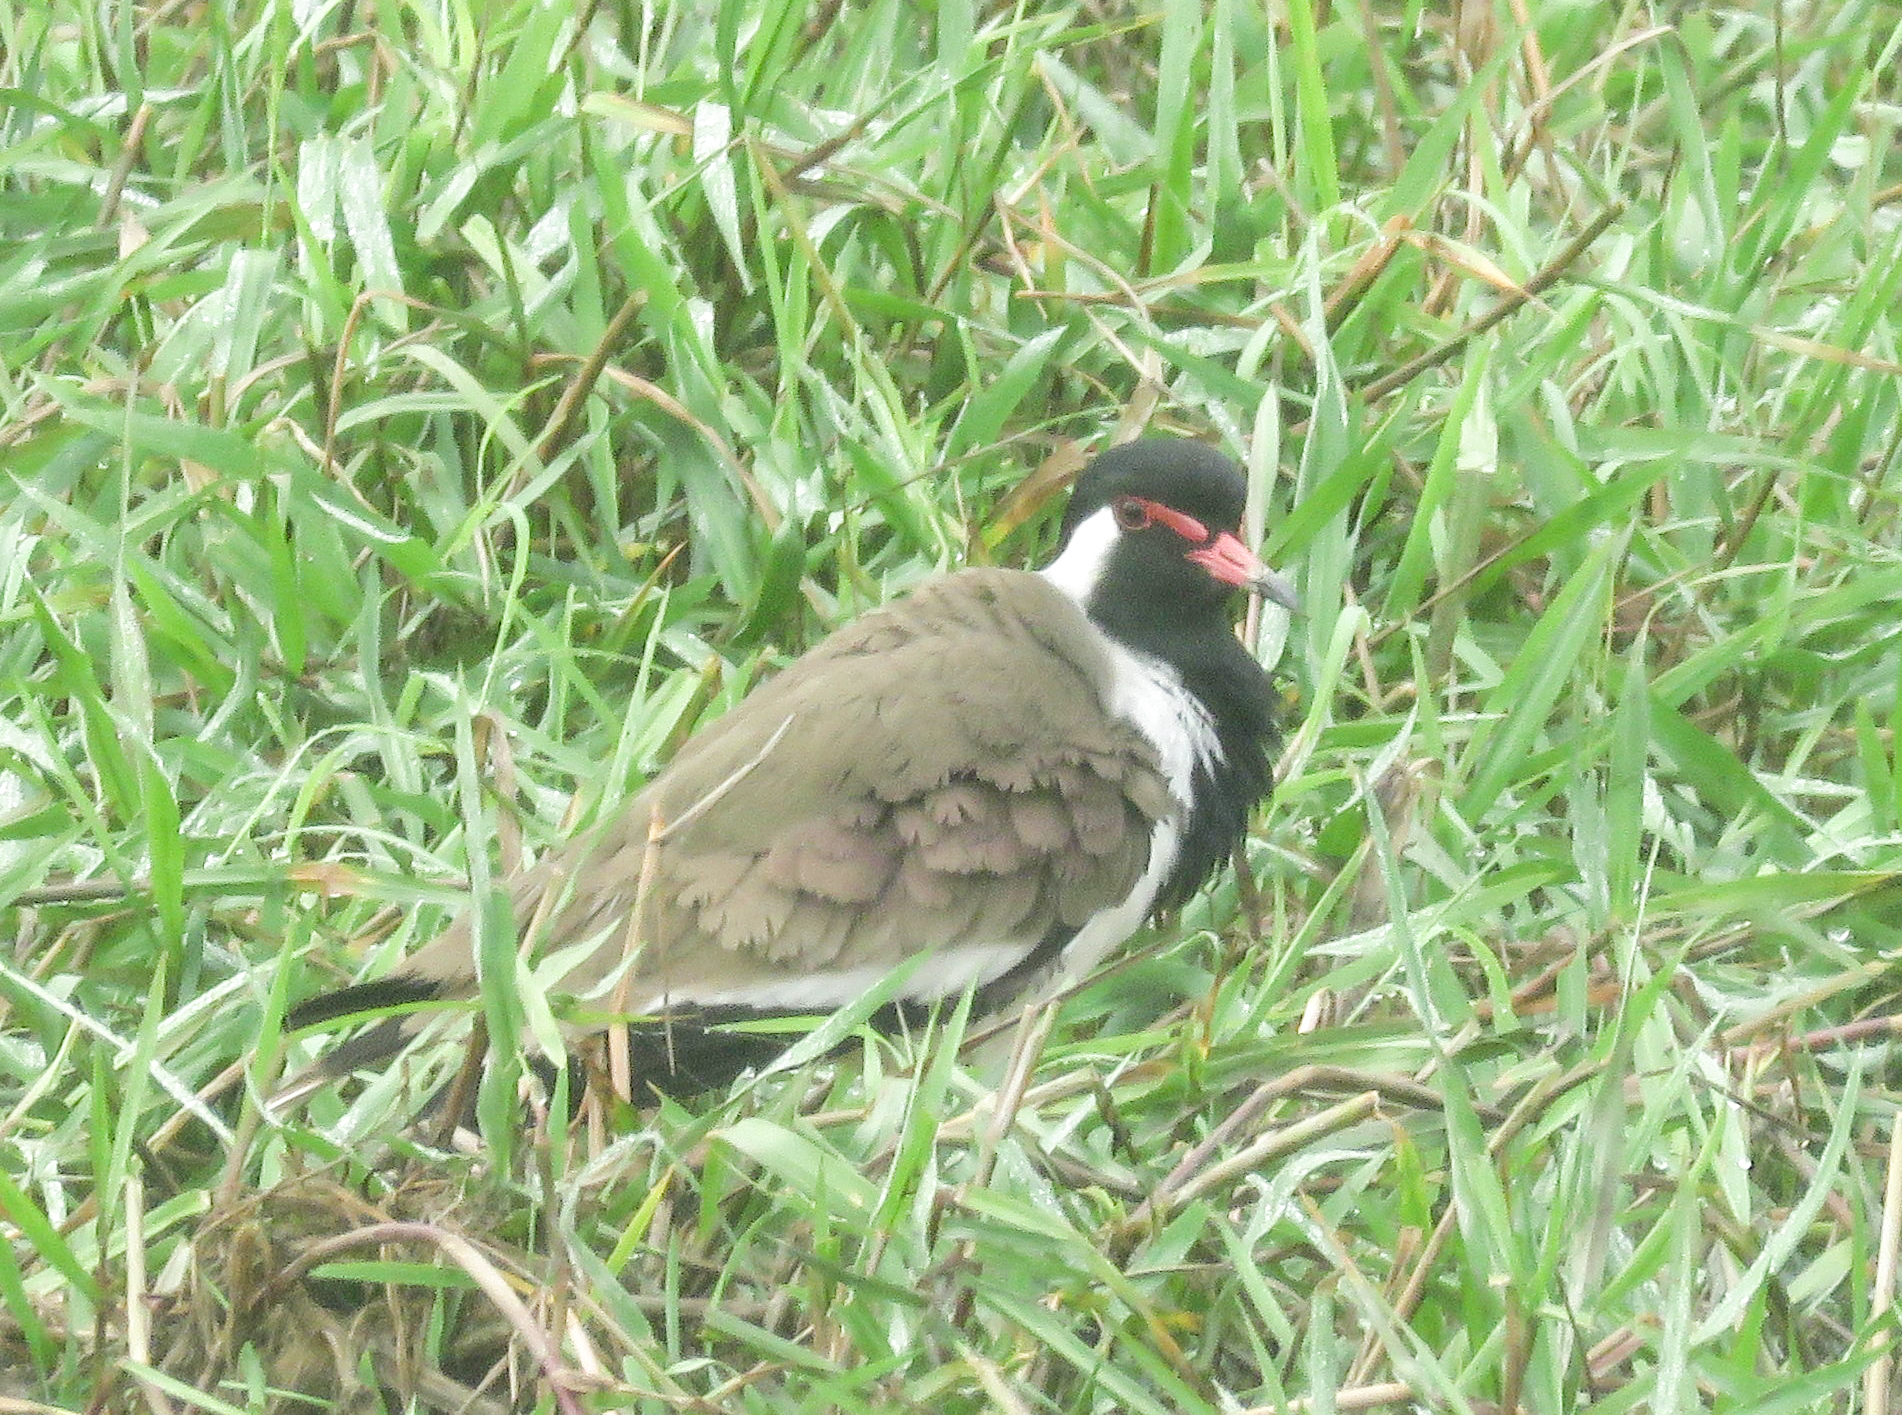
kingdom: Animalia
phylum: Chordata
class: Aves
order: Charadriiformes
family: Charadriidae
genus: Vanellus
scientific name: Vanellus indicus
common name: Red-wattled lapwing
